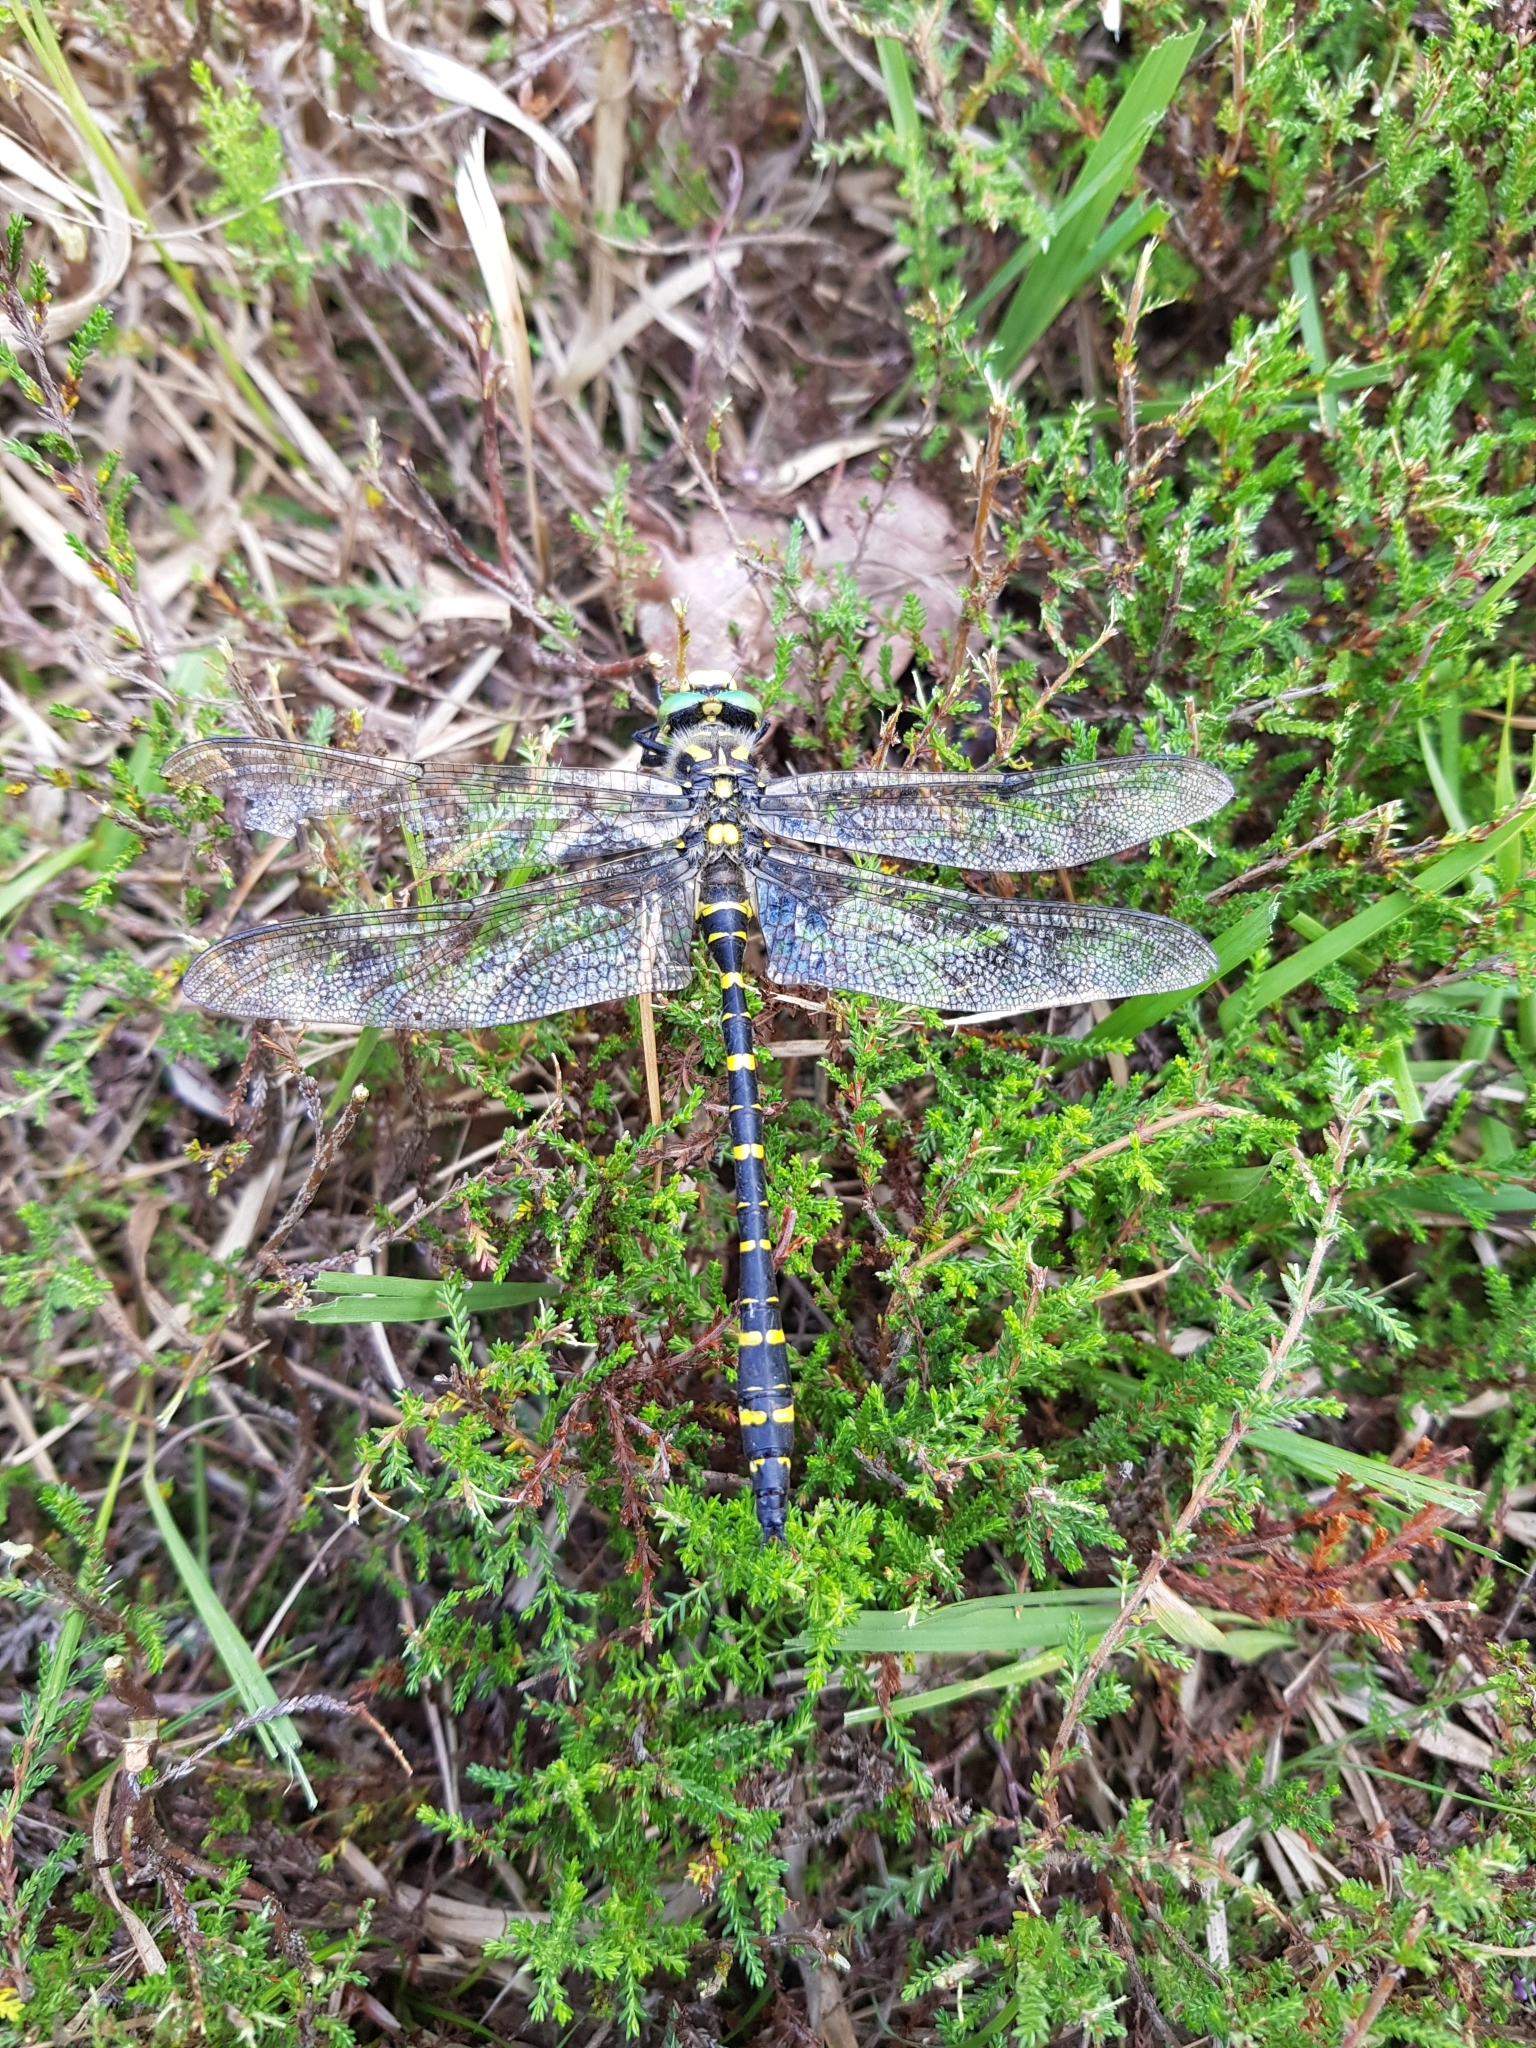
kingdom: Animalia
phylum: Arthropoda
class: Insecta
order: Odonata
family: Cordulegastridae
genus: Cordulegaster
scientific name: Cordulegaster boltonii
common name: Golden-ringed dragonfly
